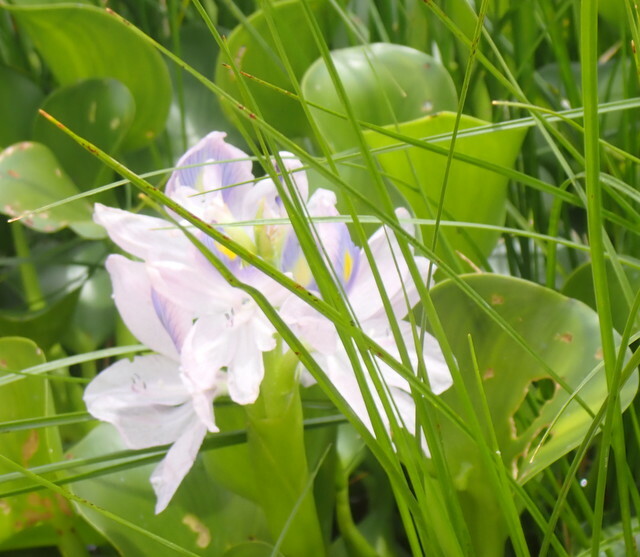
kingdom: Plantae
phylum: Tracheophyta
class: Liliopsida
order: Commelinales
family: Pontederiaceae
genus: Pontederia
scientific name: Pontederia crassipes
